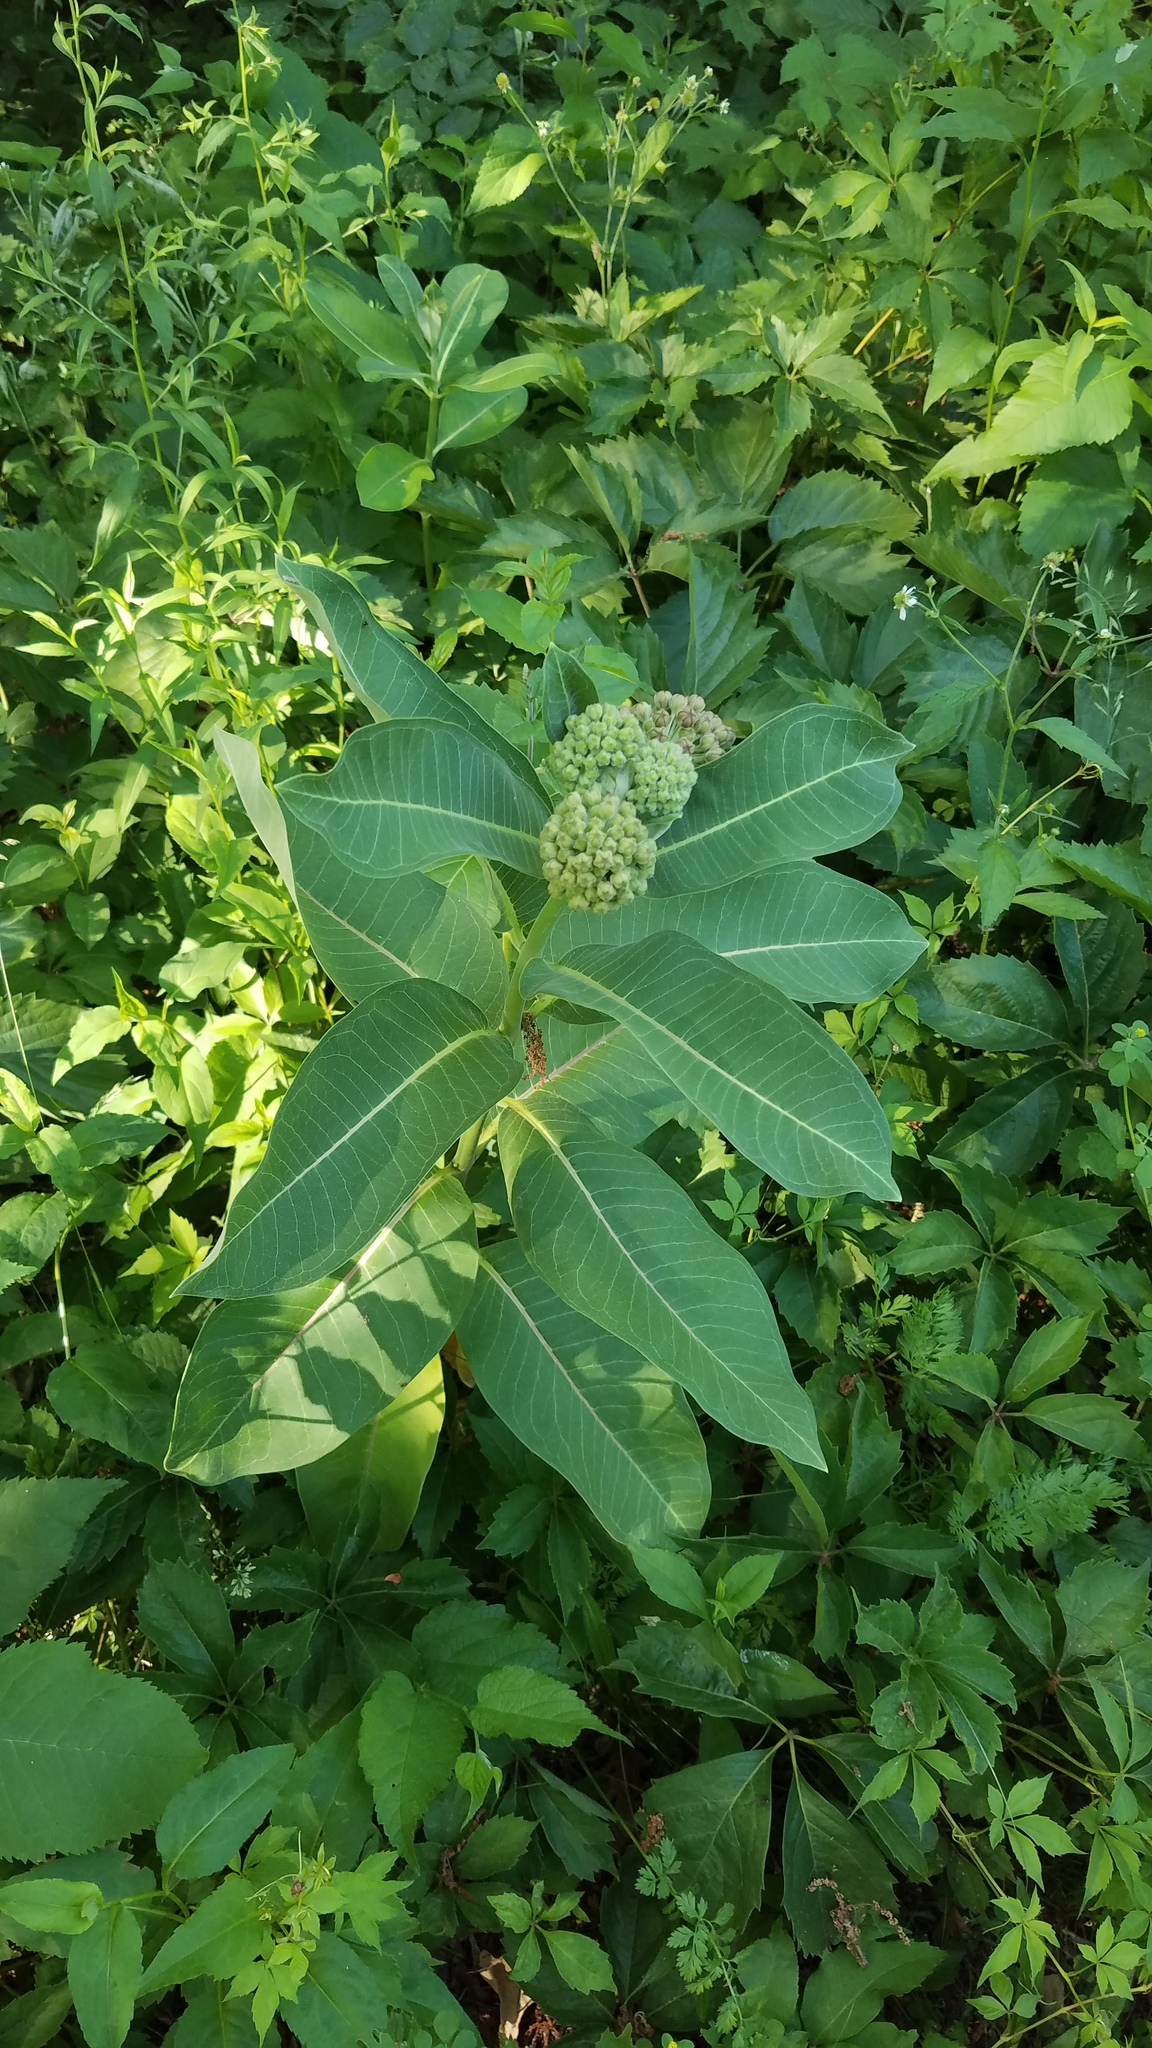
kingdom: Plantae
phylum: Tracheophyta
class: Magnoliopsida
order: Gentianales
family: Apocynaceae
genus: Asclepias
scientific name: Asclepias syriaca
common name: Common milkweed
